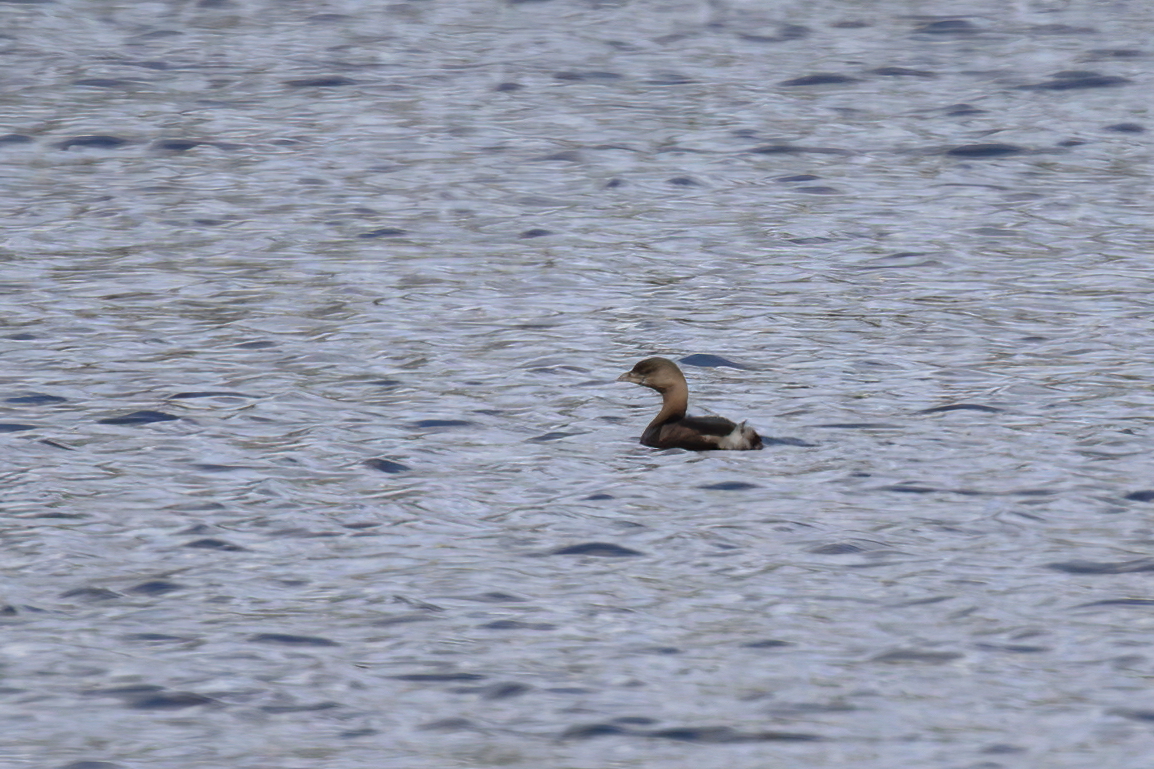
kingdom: Animalia
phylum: Chordata
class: Aves
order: Podicipediformes
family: Podicipedidae
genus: Podilymbus
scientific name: Podilymbus podiceps
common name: Pied-billed grebe
